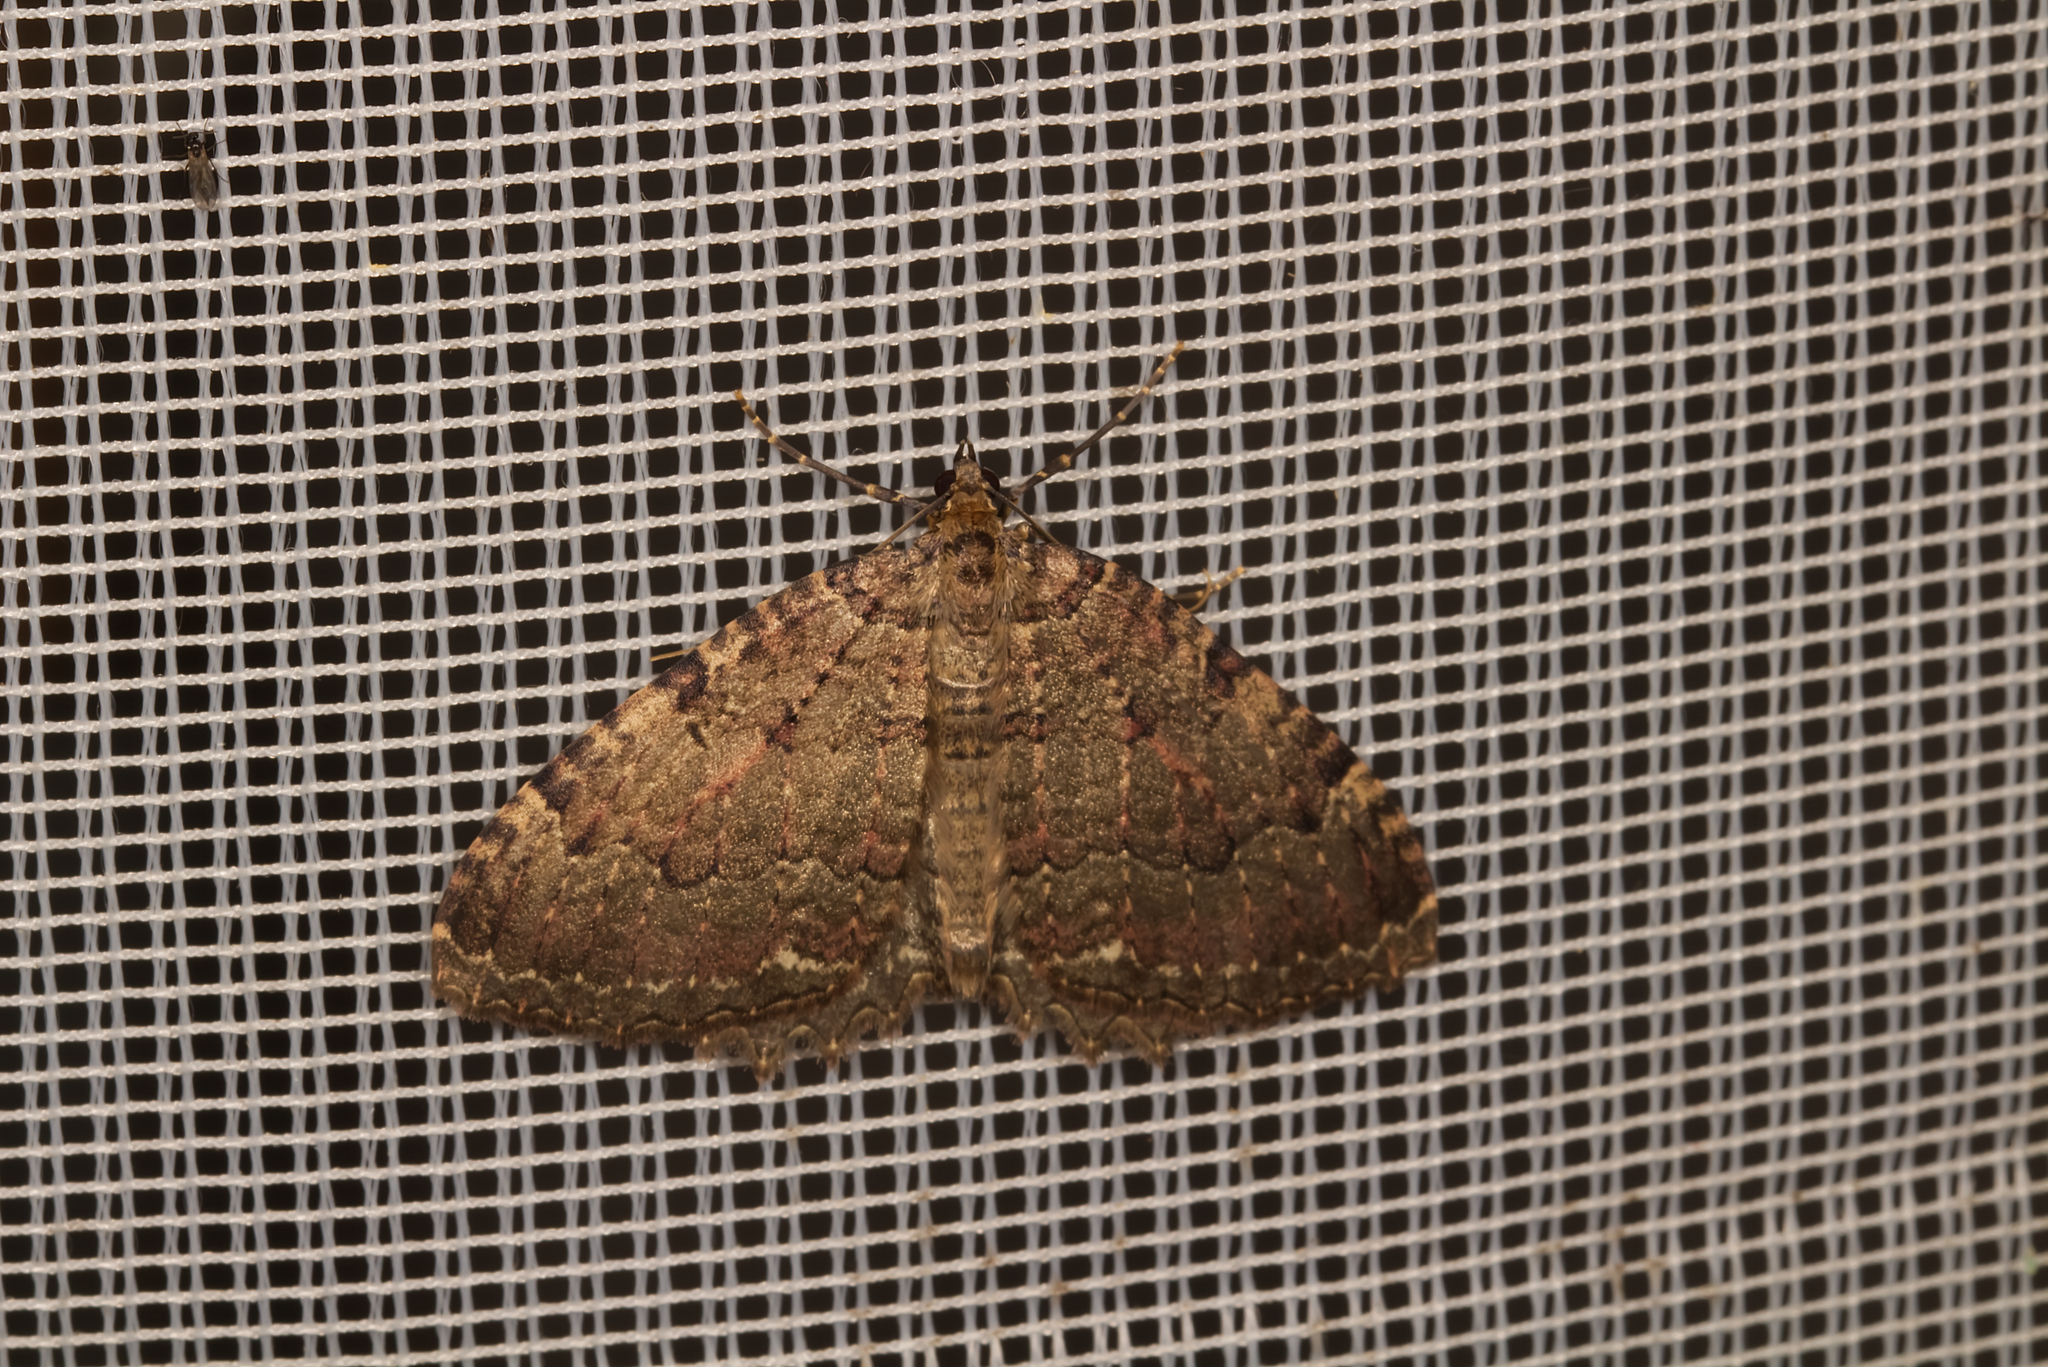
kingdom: Animalia
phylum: Arthropoda
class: Insecta
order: Lepidoptera
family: Geometridae
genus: Triphosa
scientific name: Triphosa dubitata
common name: Tissue
